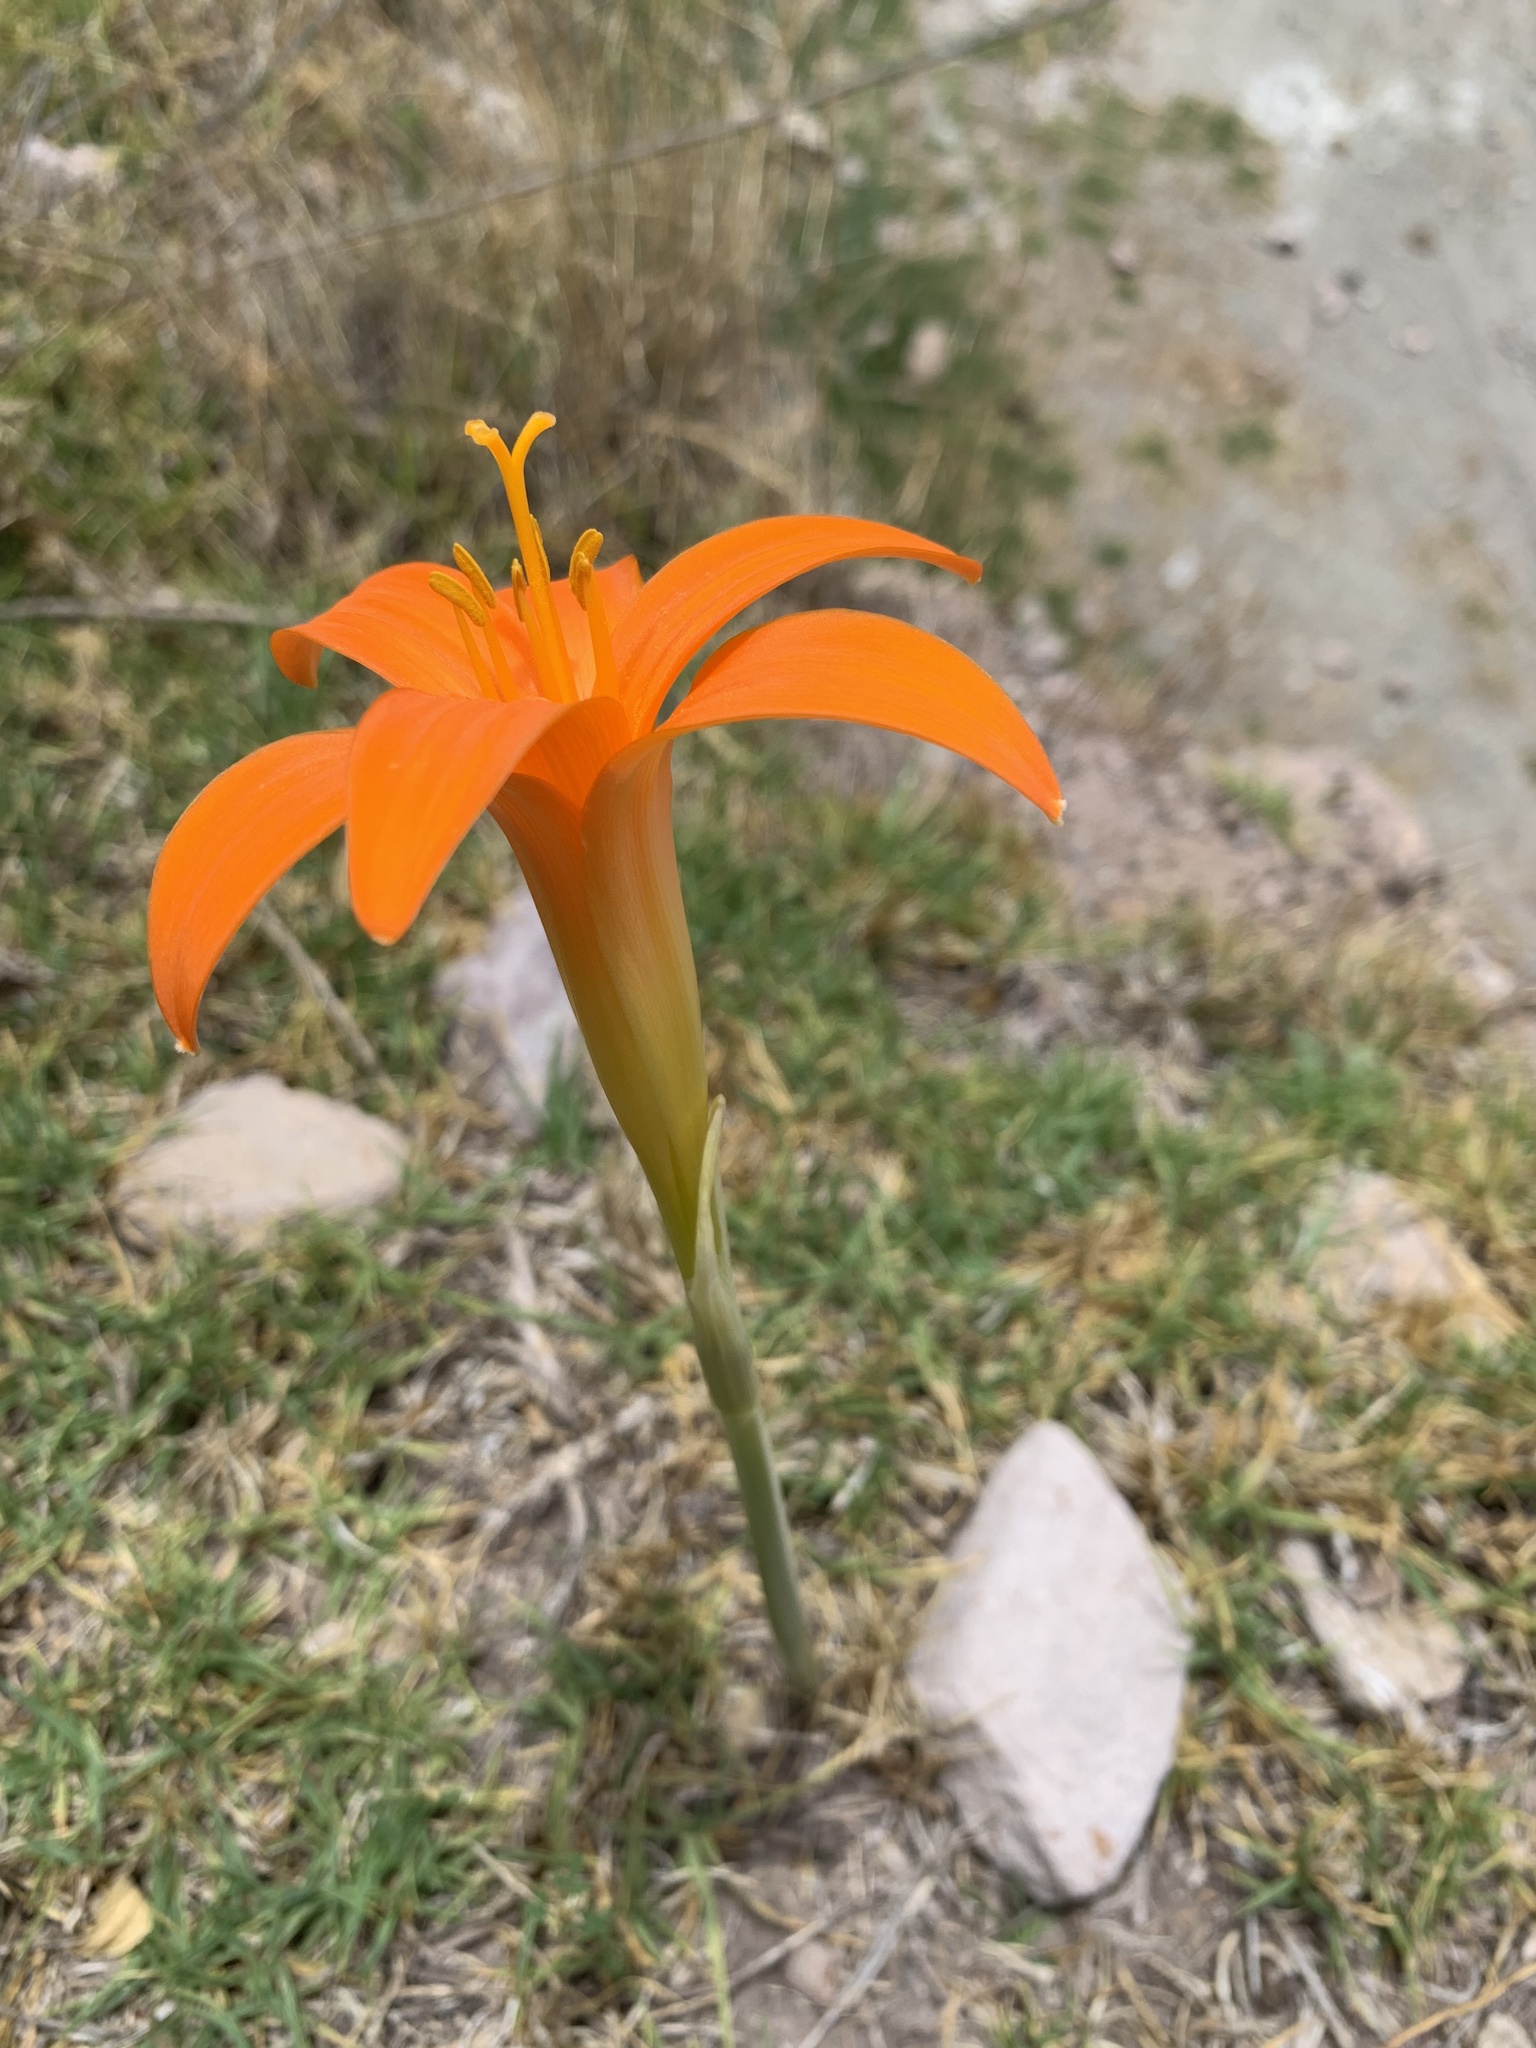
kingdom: Plantae
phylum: Tracheophyta
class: Liliopsida
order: Asparagales
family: Amaryllidaceae
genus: Pyrolirion
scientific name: Pyrolirion tubiflorum
